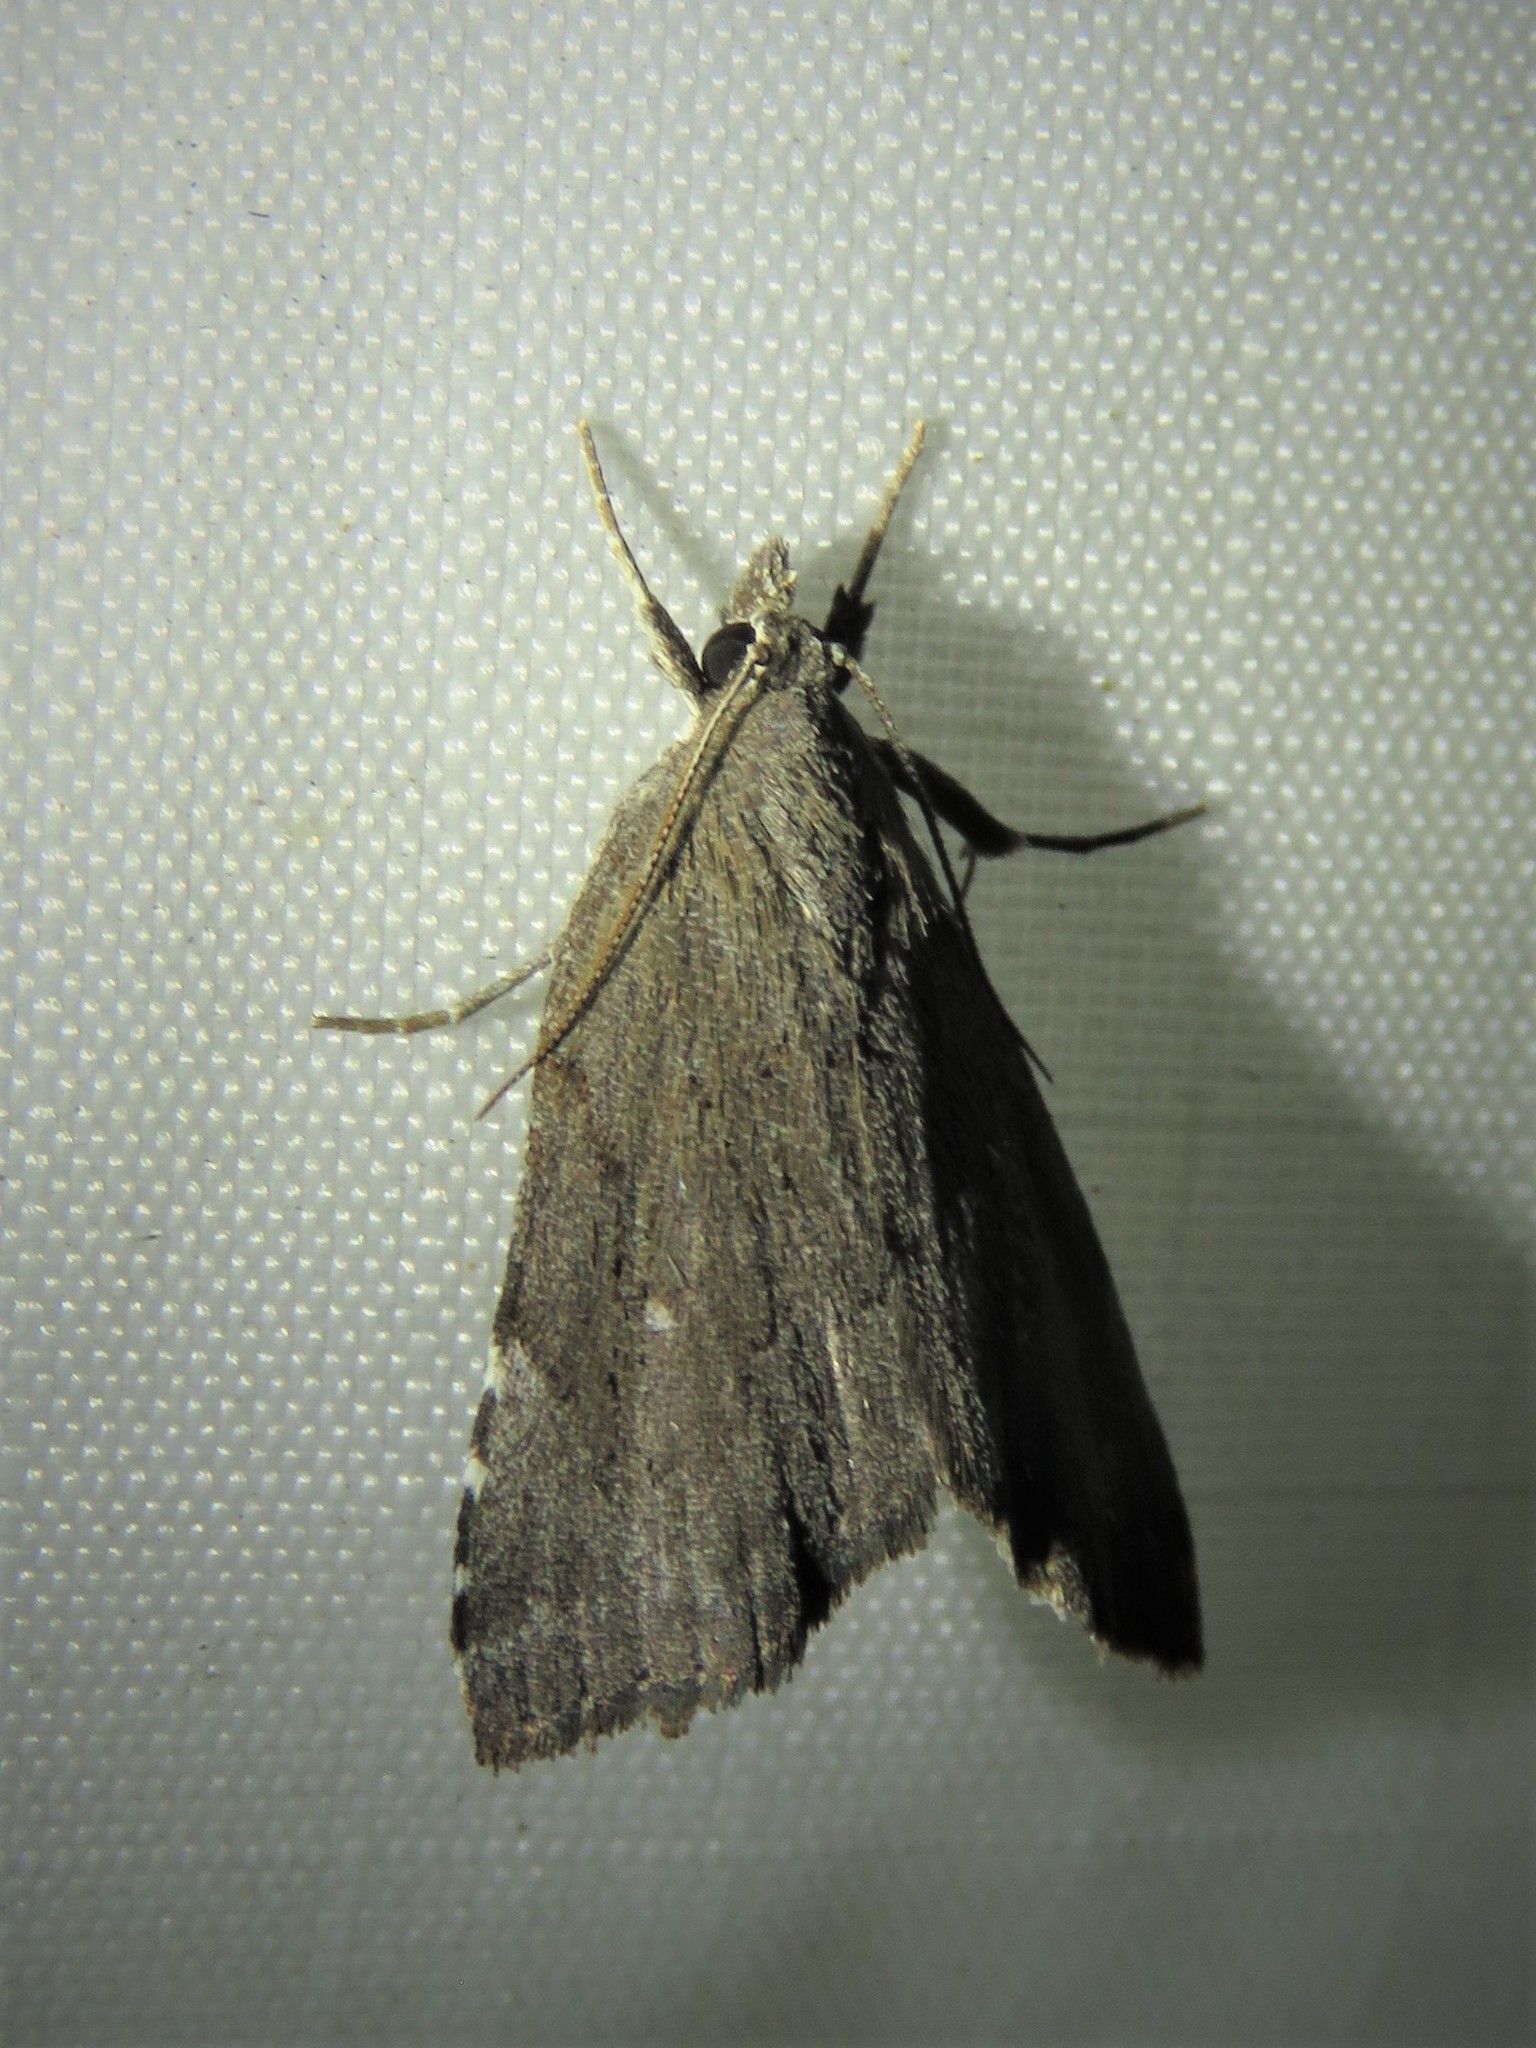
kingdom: Animalia
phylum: Arthropoda
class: Insecta
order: Lepidoptera
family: Erebidae
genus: Cutina
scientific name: Cutina albopunctella
